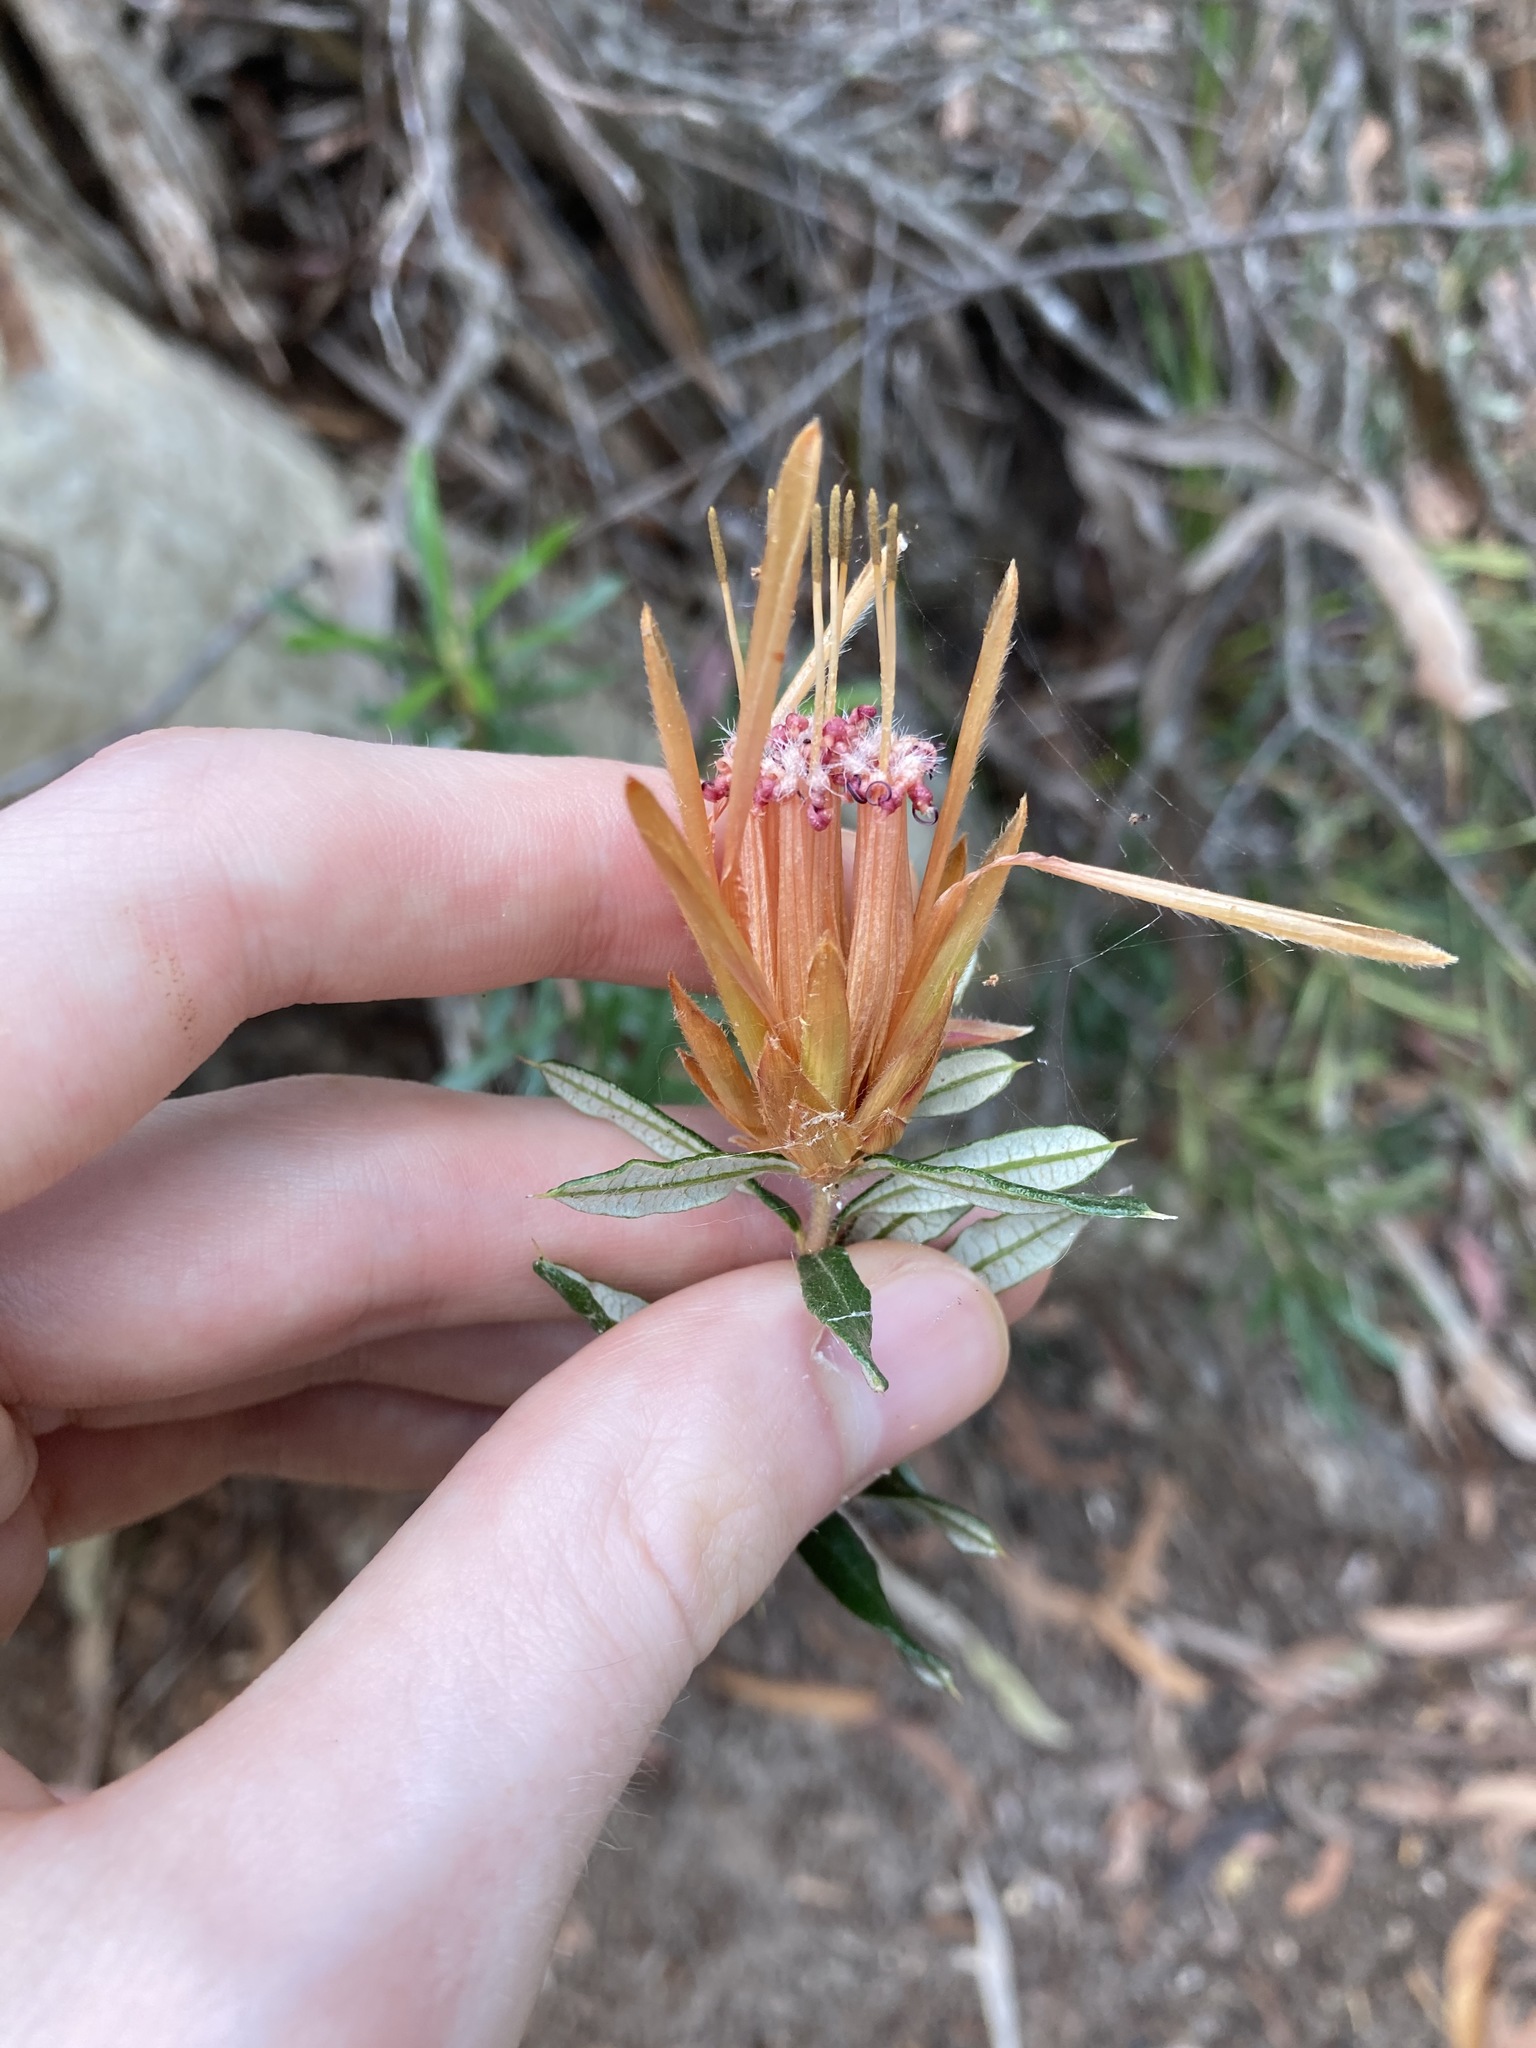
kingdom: Plantae
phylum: Tracheophyta
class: Magnoliopsida
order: Proteales
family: Proteaceae
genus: Lambertia
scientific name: Lambertia formosa
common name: Mountain-devil
